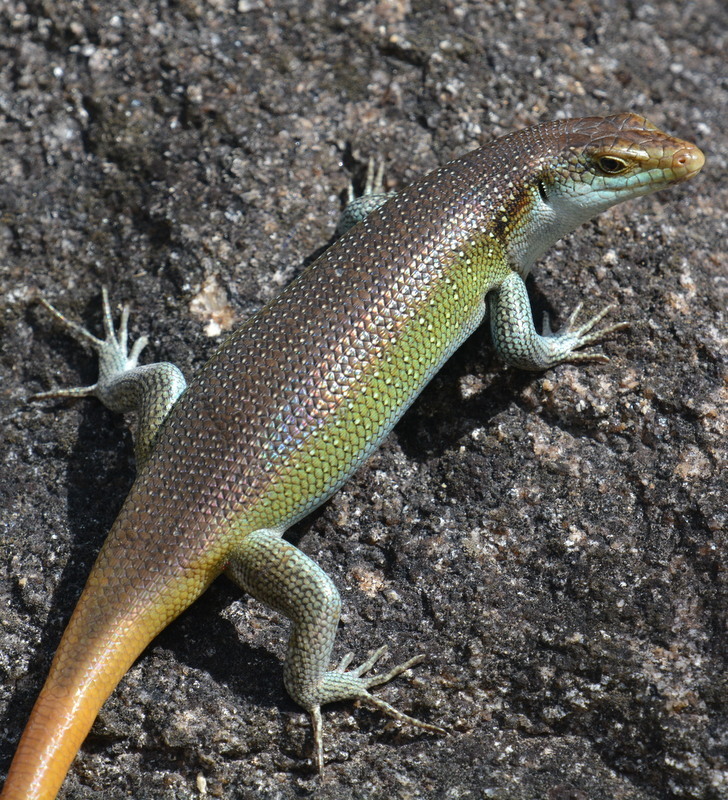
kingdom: Animalia
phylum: Chordata
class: Squamata
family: Scincidae
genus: Trachylepis
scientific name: Trachylepis margaritifera
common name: Rainbow skink
